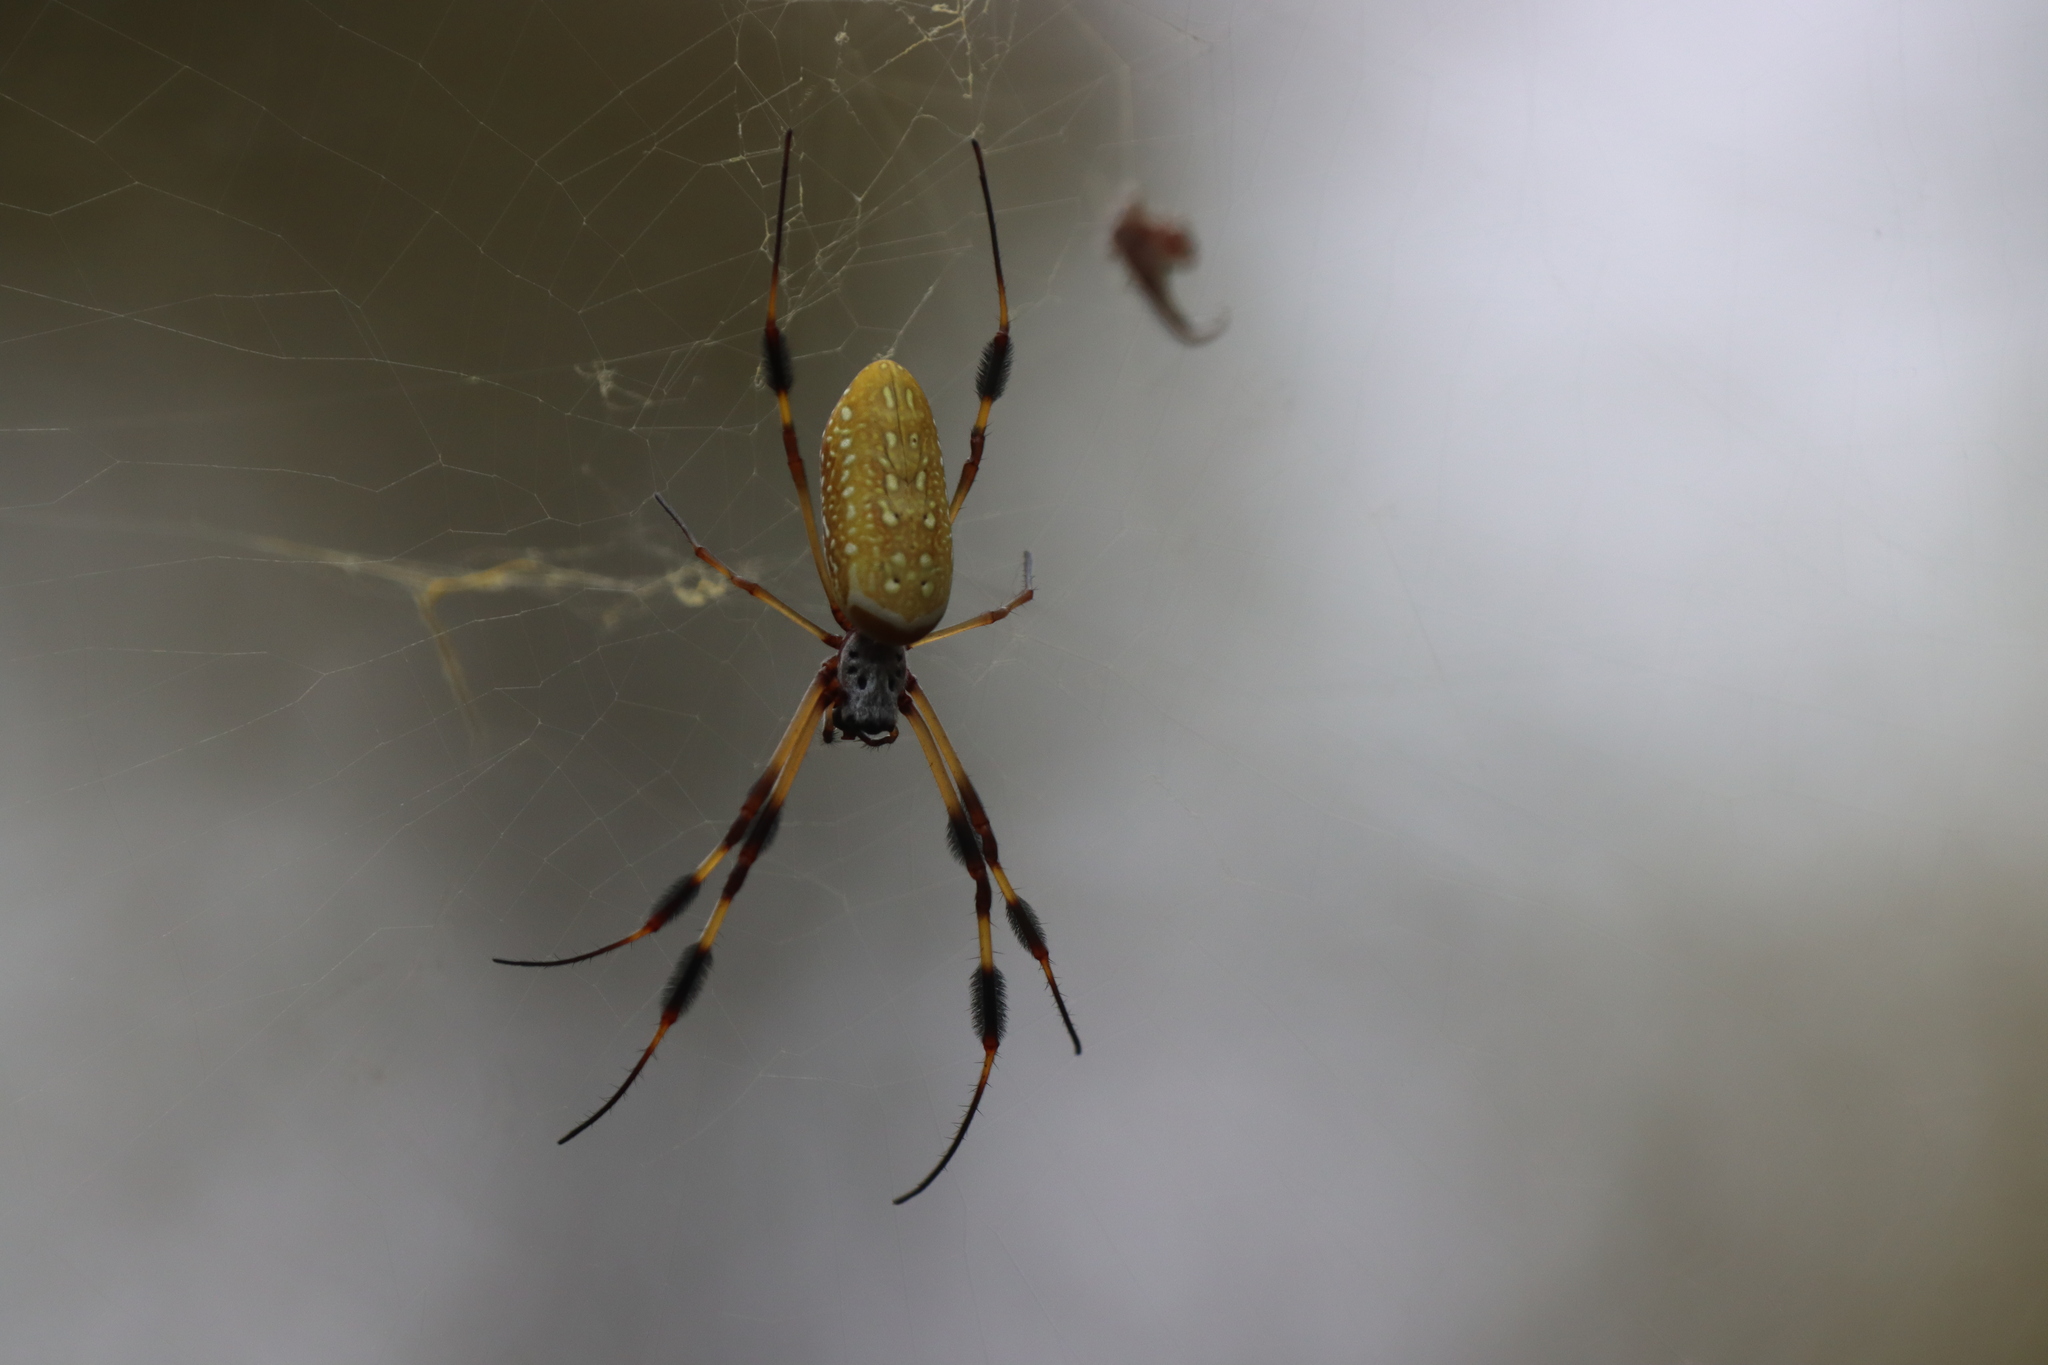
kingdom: Animalia
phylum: Arthropoda
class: Arachnida
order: Araneae
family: Araneidae
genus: Trichonephila
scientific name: Trichonephila clavipes
